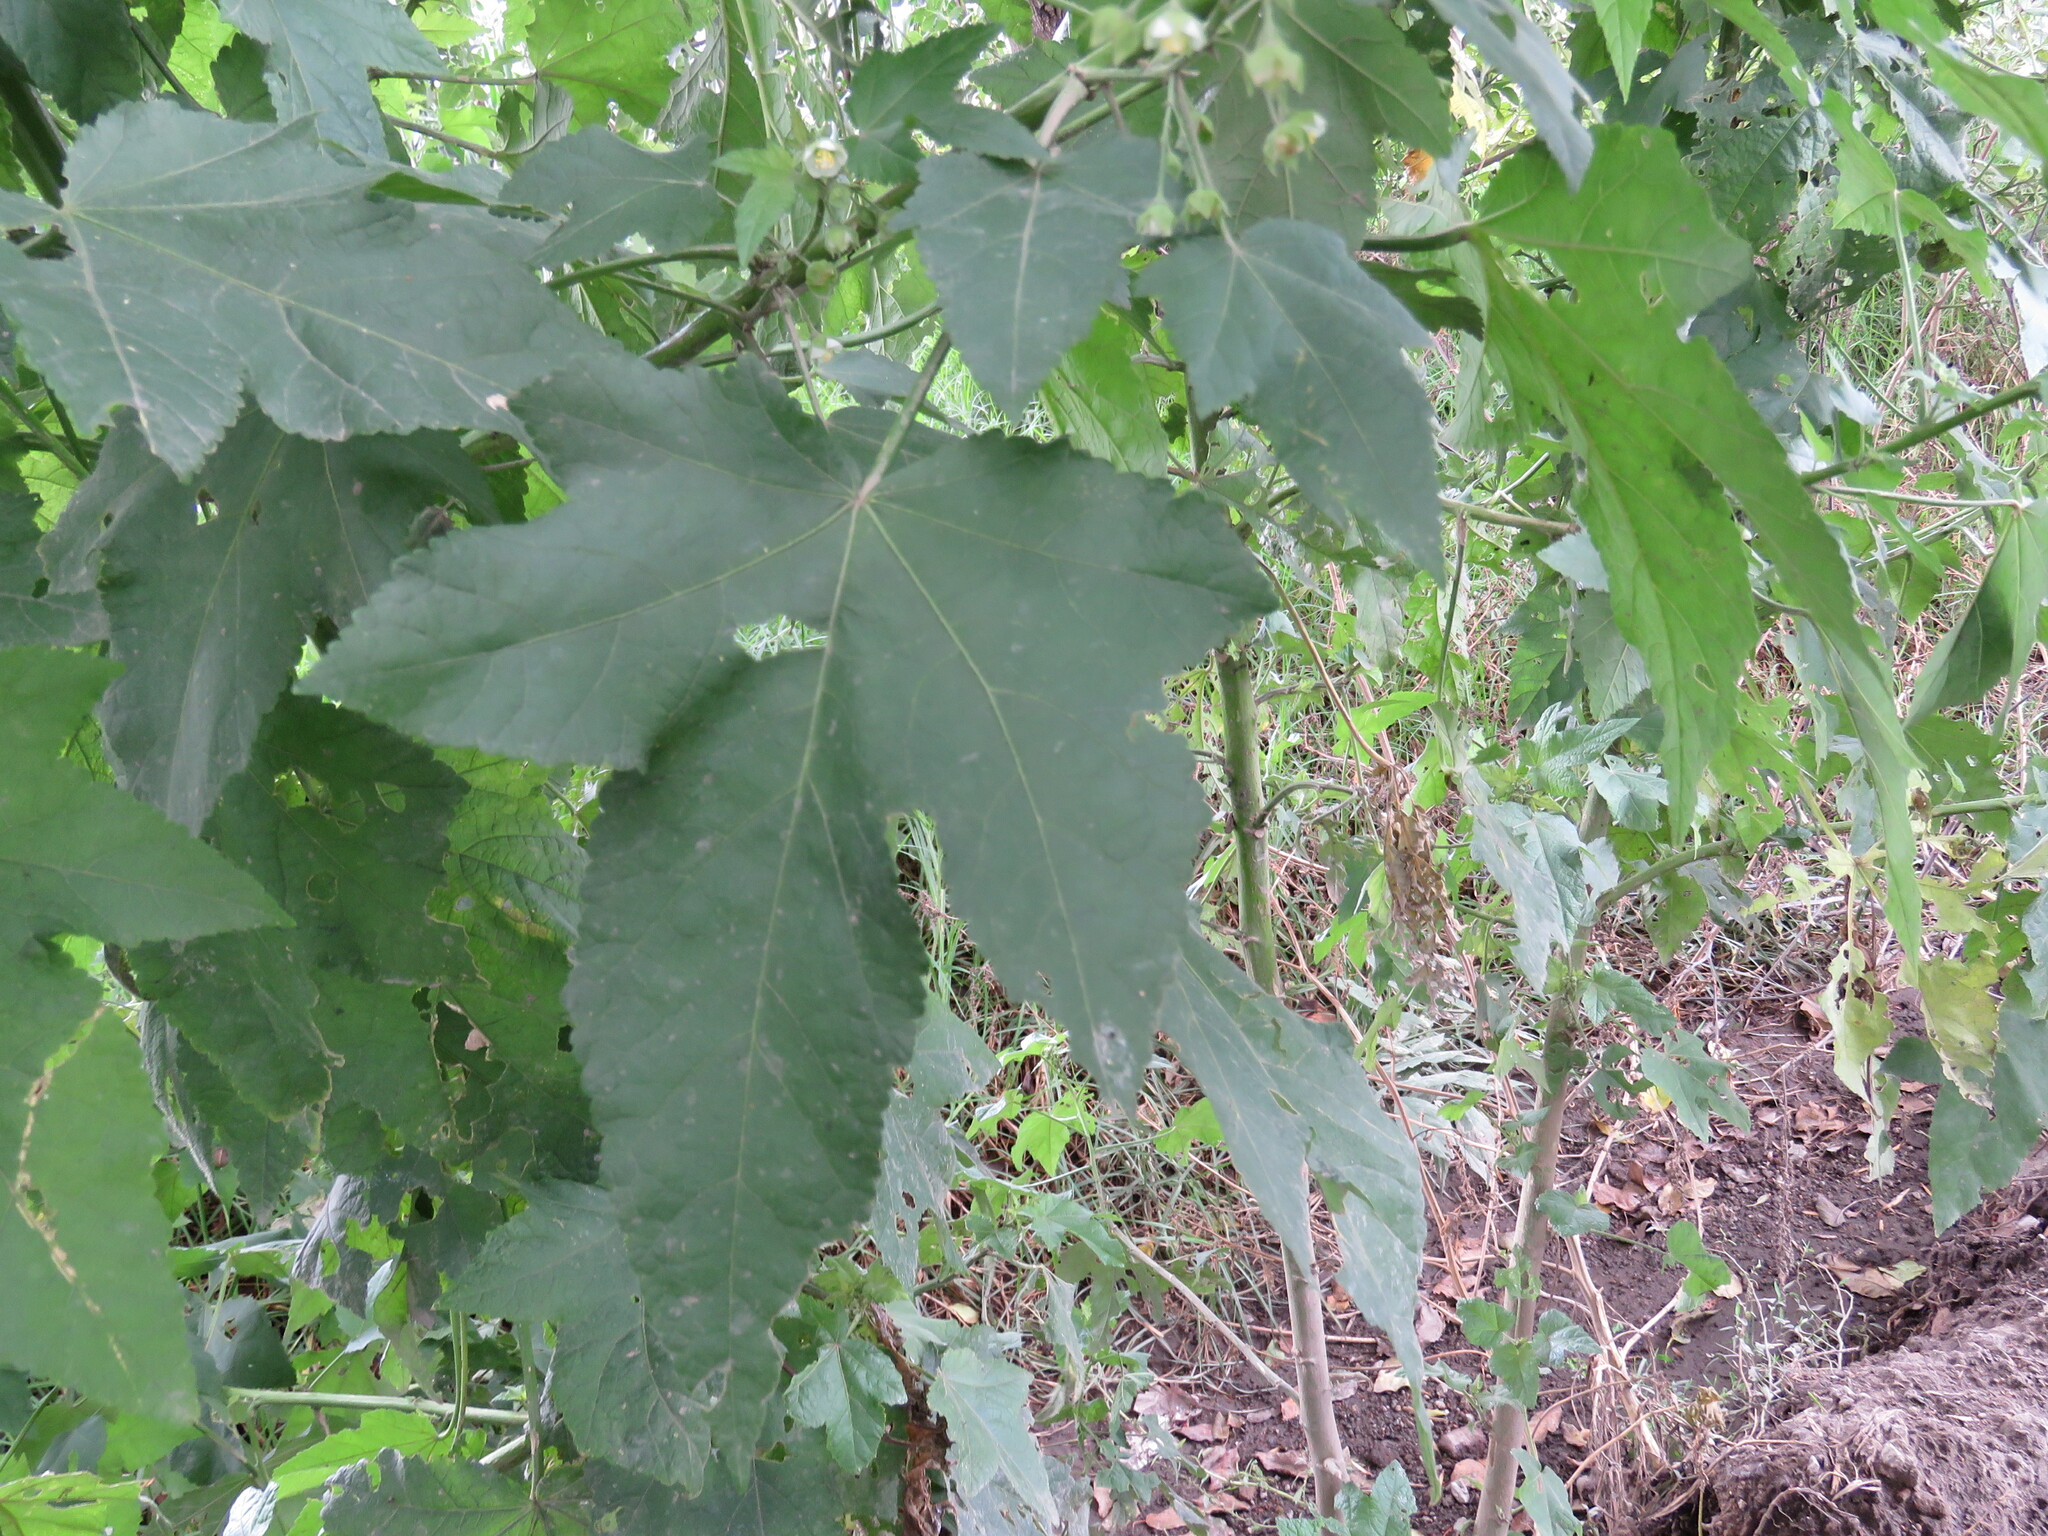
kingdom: Plantae
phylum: Tracheophyta
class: Magnoliopsida
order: Malvales
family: Malvaceae
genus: Kearnemalvastrum
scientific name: Kearnemalvastrum lacteum
